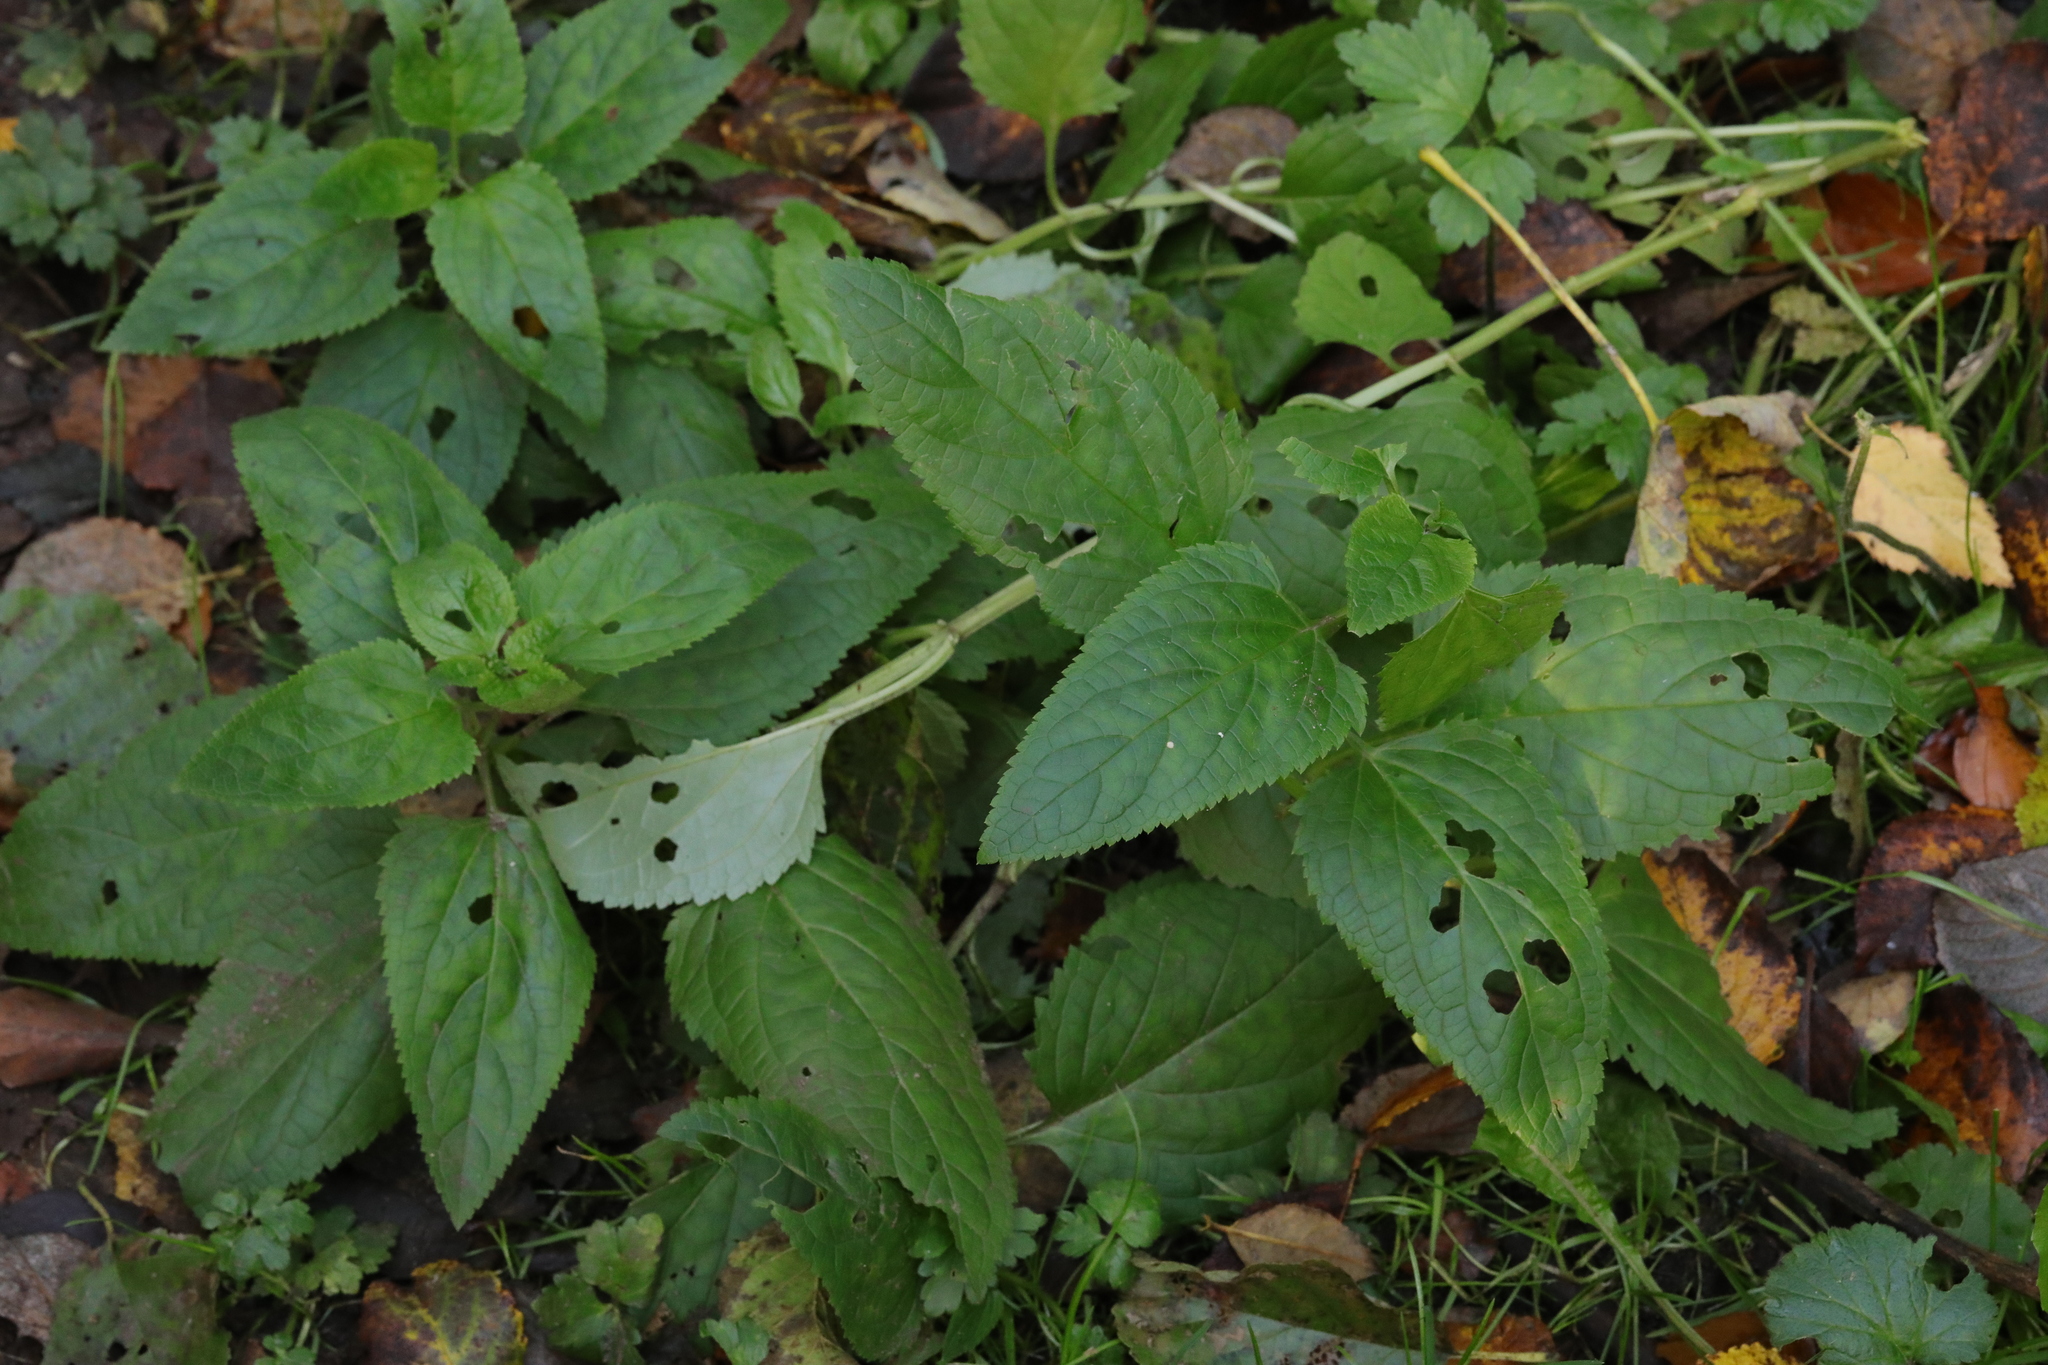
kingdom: Plantae
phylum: Tracheophyta
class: Magnoliopsida
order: Lamiales
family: Scrophulariaceae
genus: Scrophularia
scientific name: Scrophularia nodosa
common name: Common figwort
